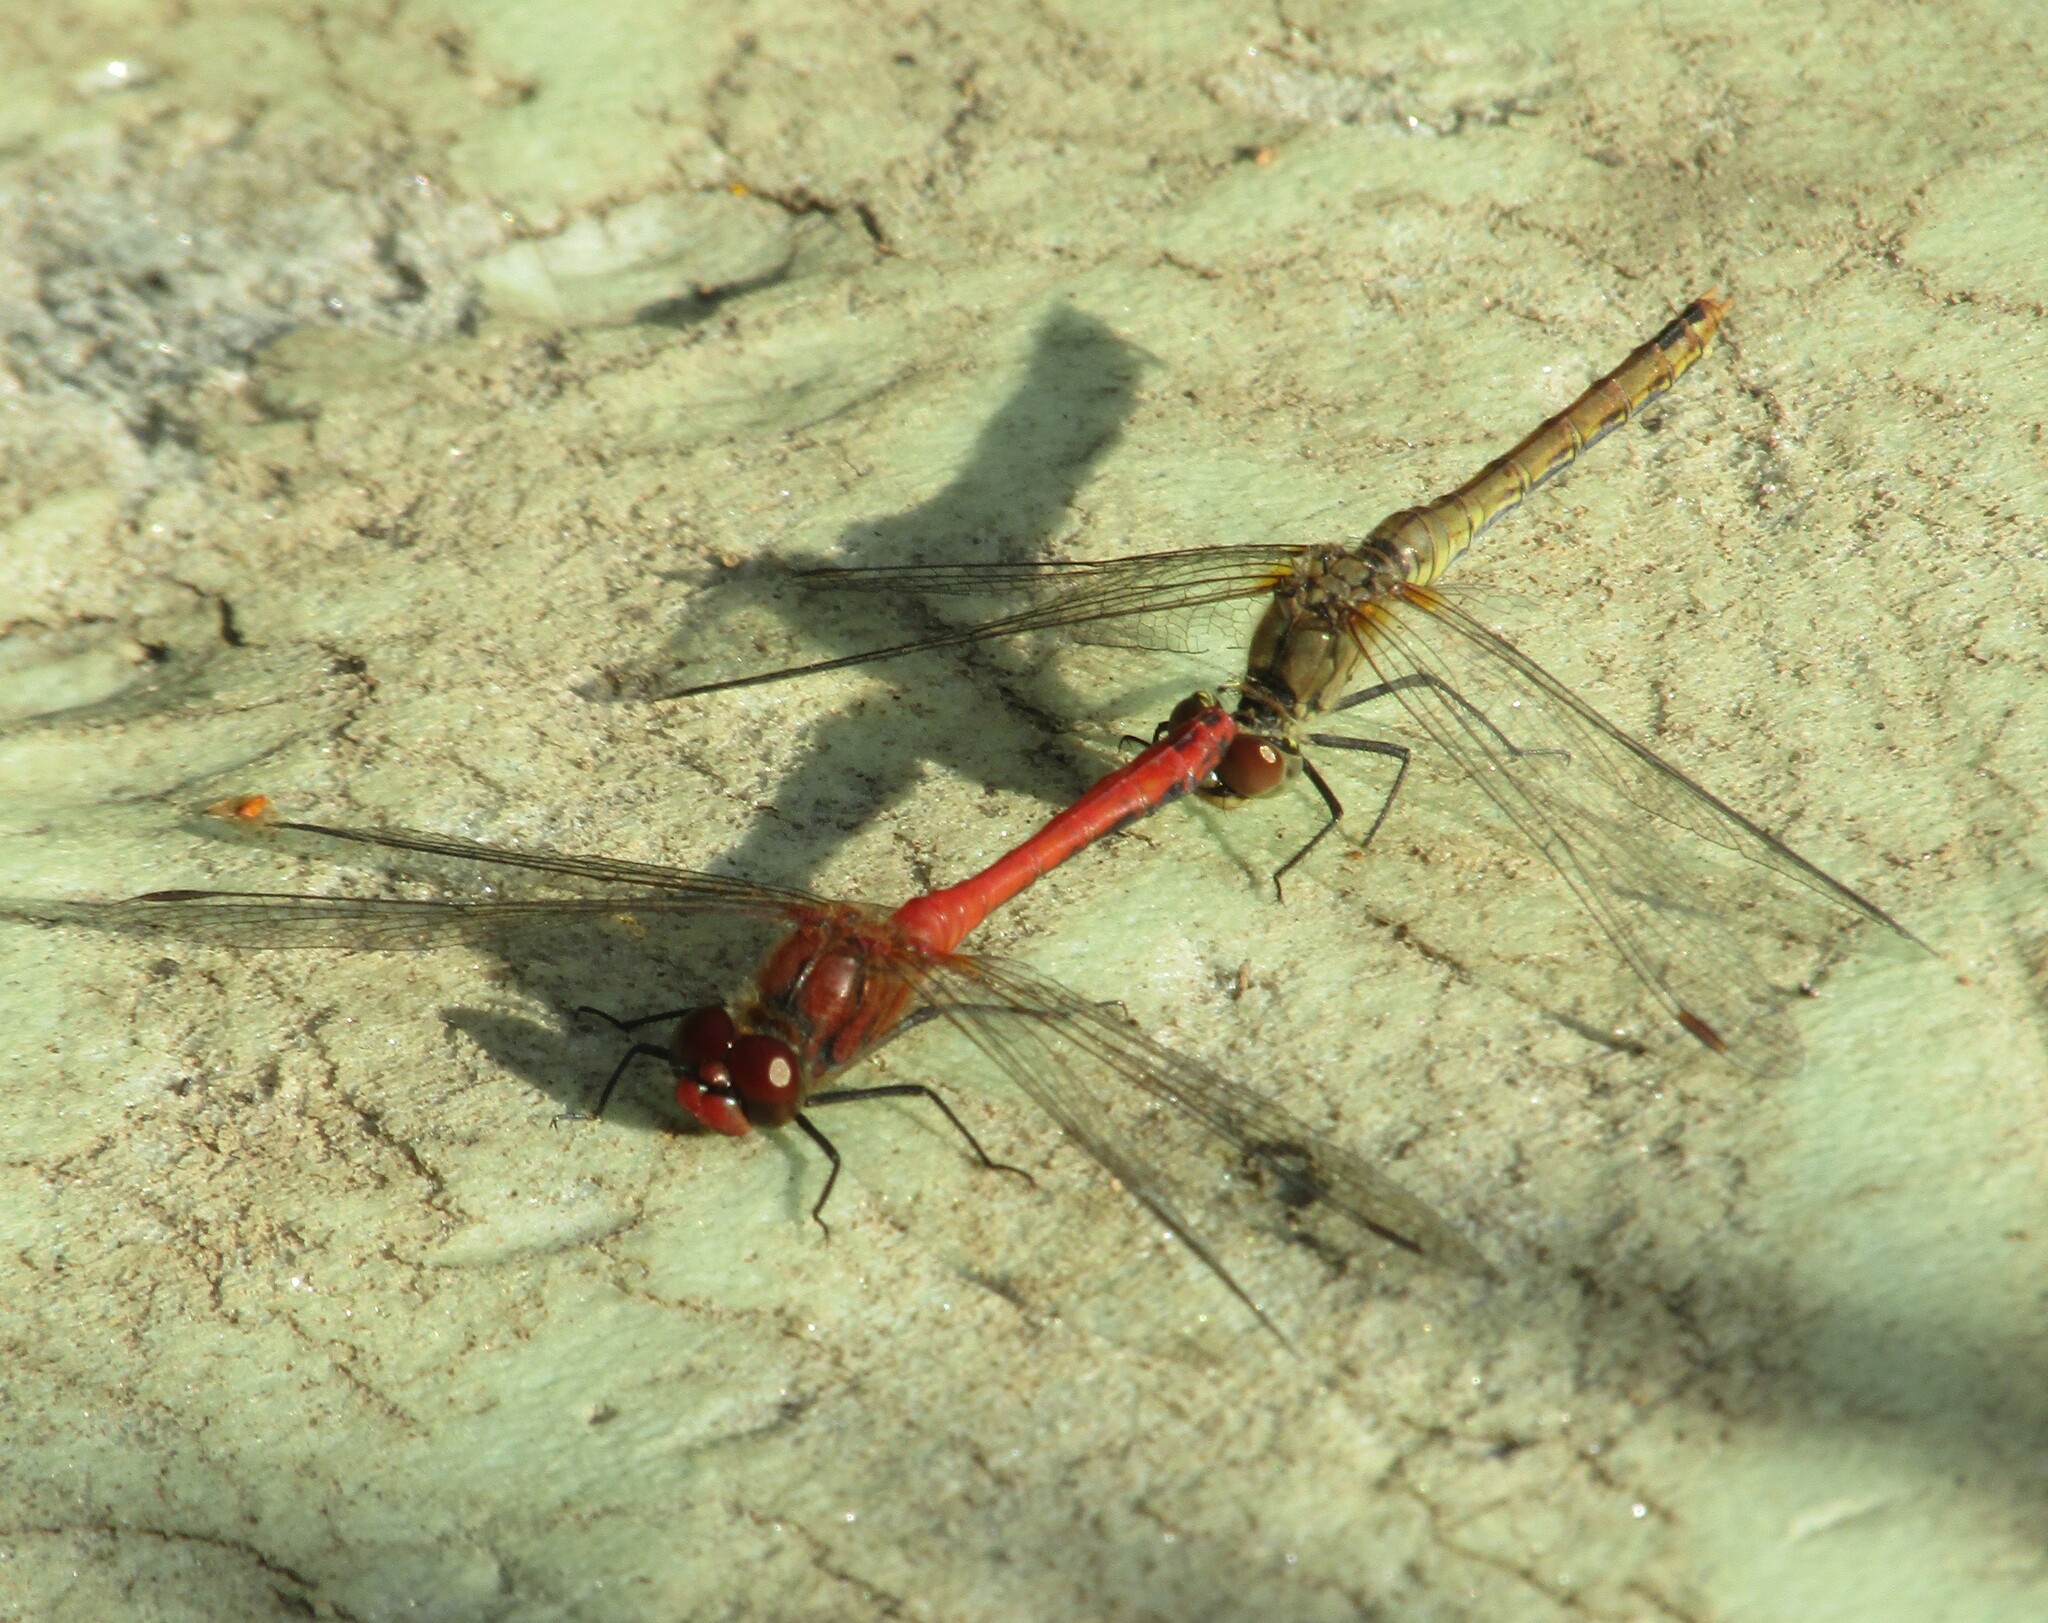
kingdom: Animalia
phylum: Arthropoda
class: Insecta
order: Odonata
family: Libellulidae
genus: Sympetrum
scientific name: Sympetrum sanguineum
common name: Ruddy darter
